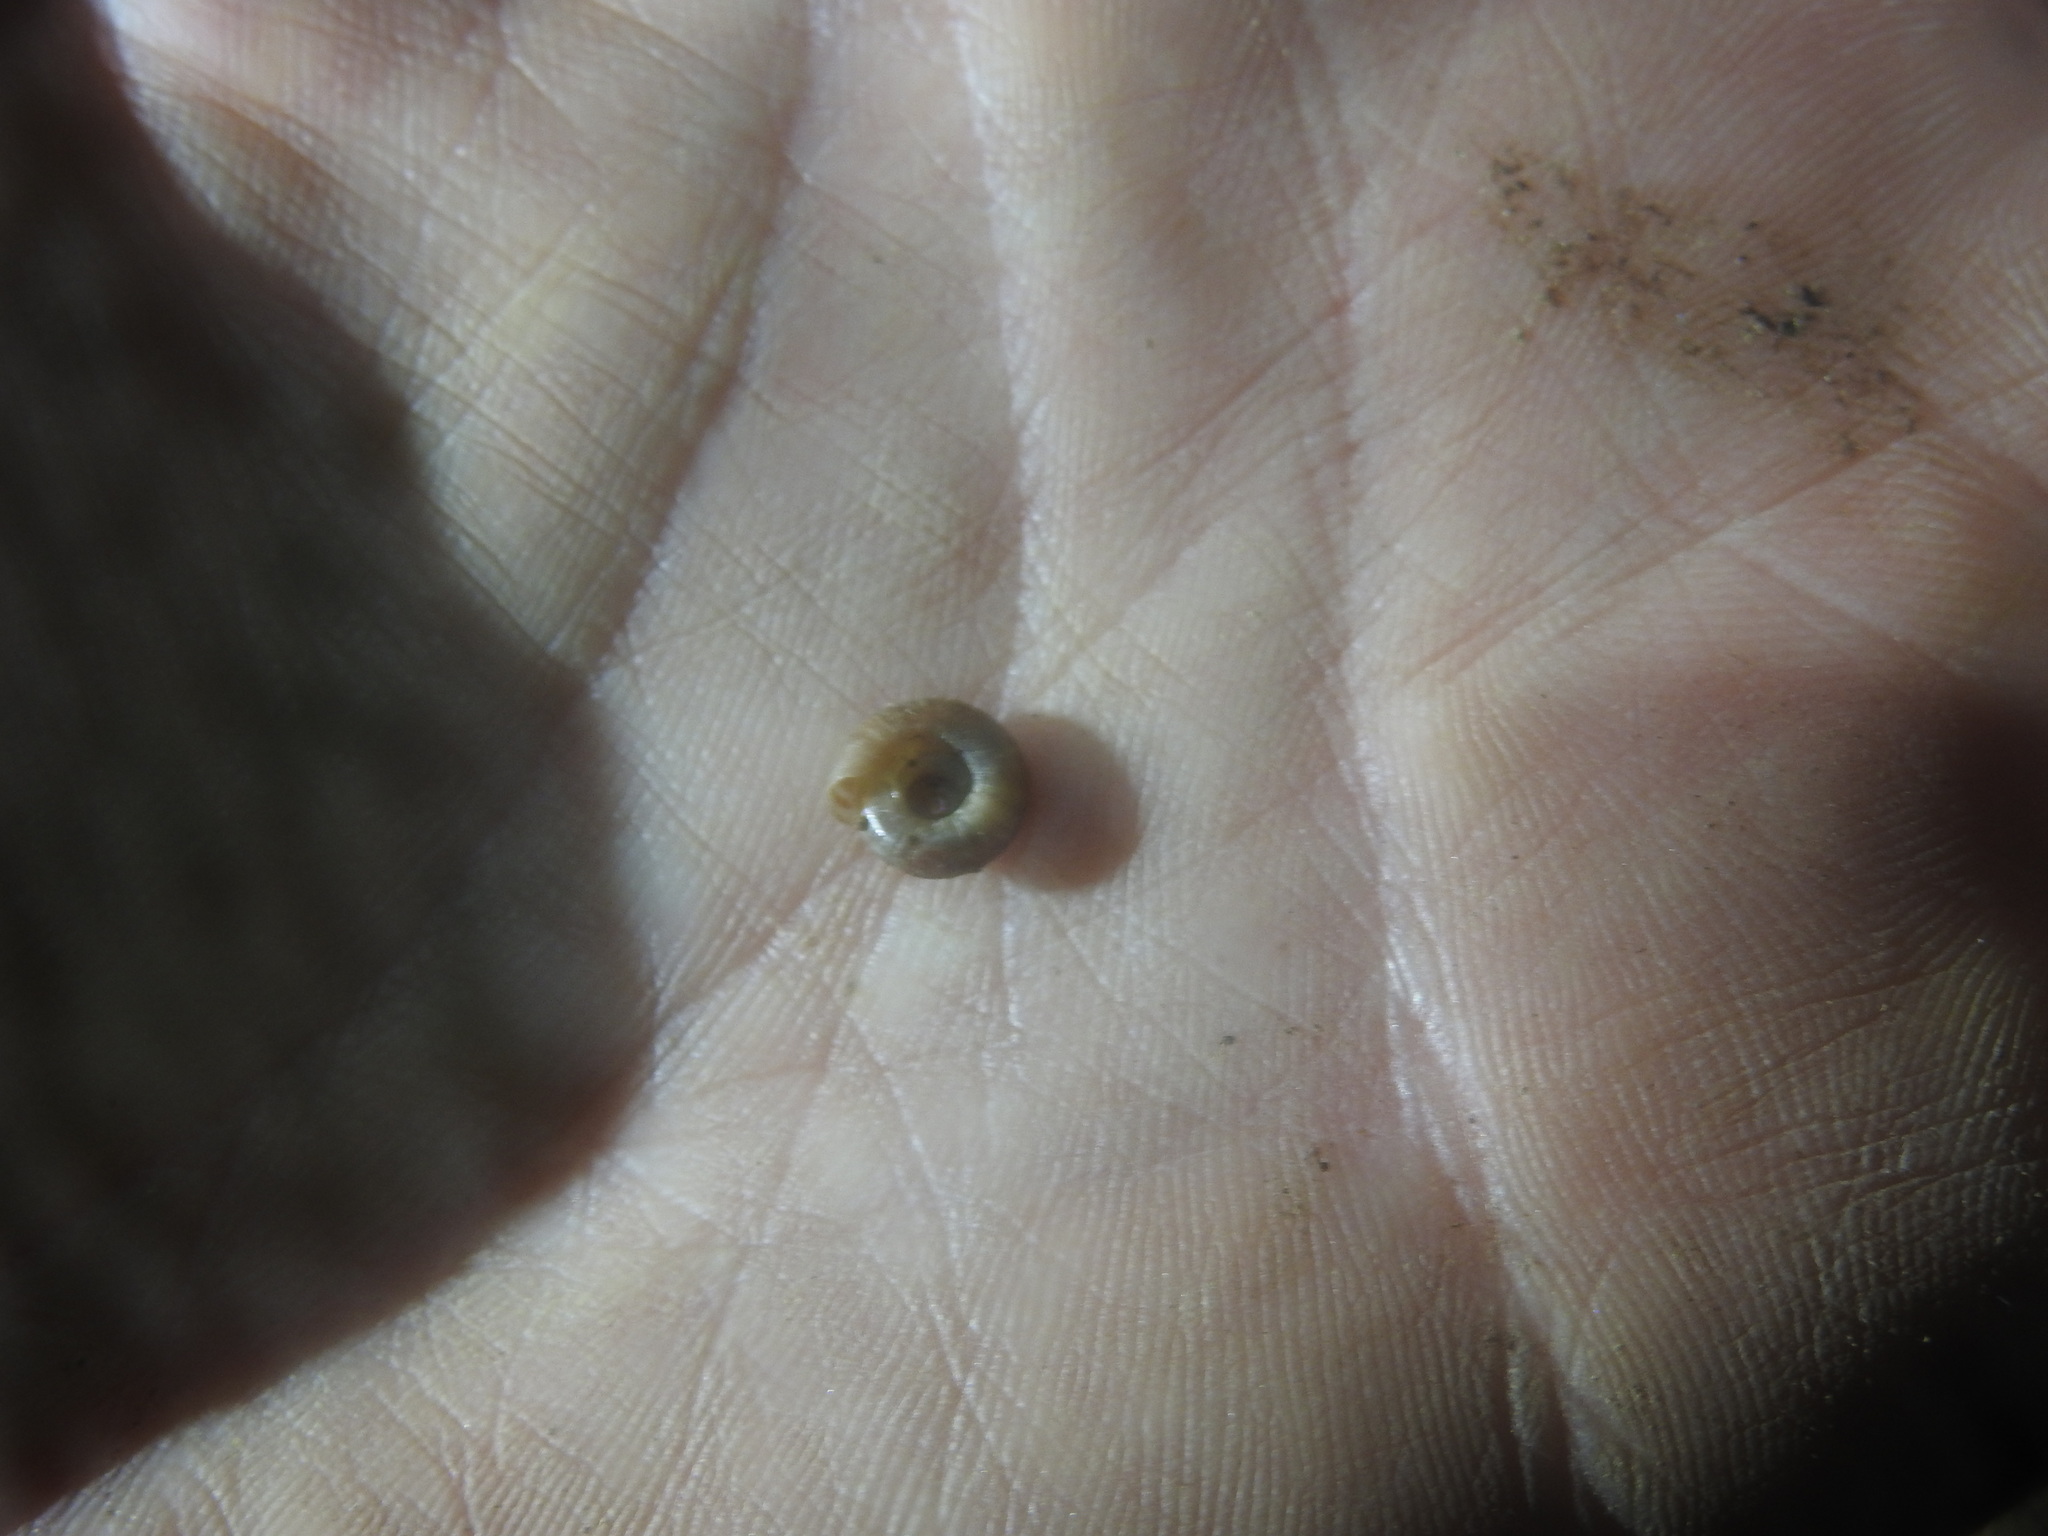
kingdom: Animalia
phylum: Mollusca
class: Gastropoda
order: Stylommatophora
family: Discidae
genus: Discus
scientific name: Discus rotundatus
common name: Rounded snail
